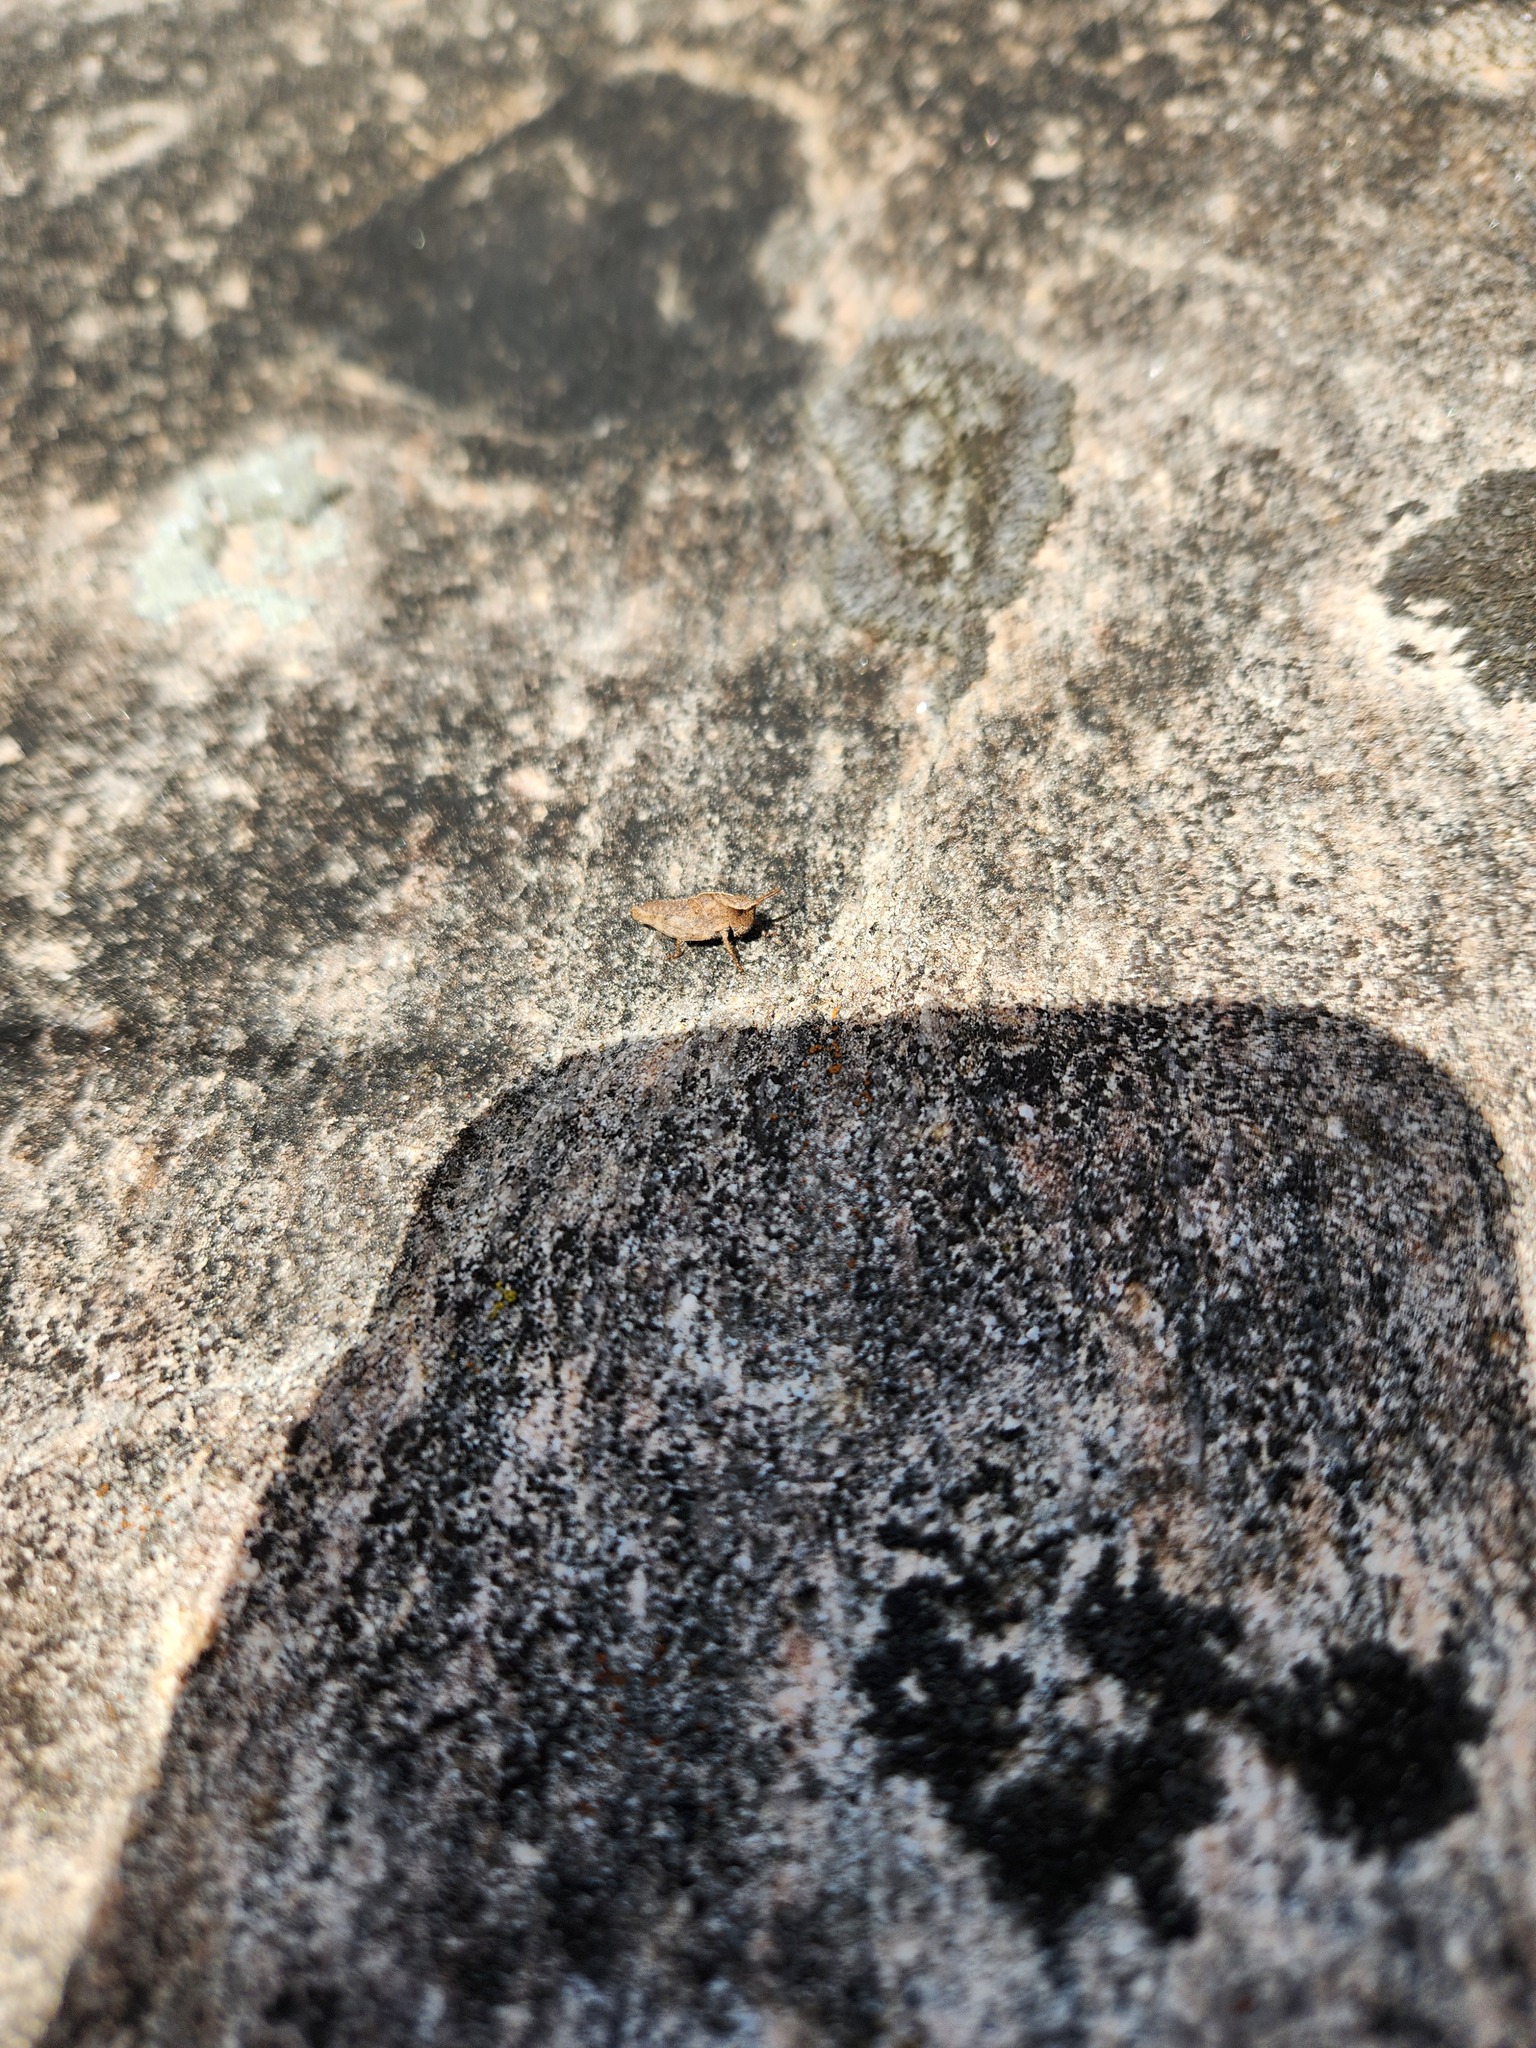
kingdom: Animalia
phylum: Arthropoda
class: Insecta
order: Orthoptera
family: Acrididae
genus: Chortophaga
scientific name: Chortophaga viridifasciata
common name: Green-striped grasshopper
